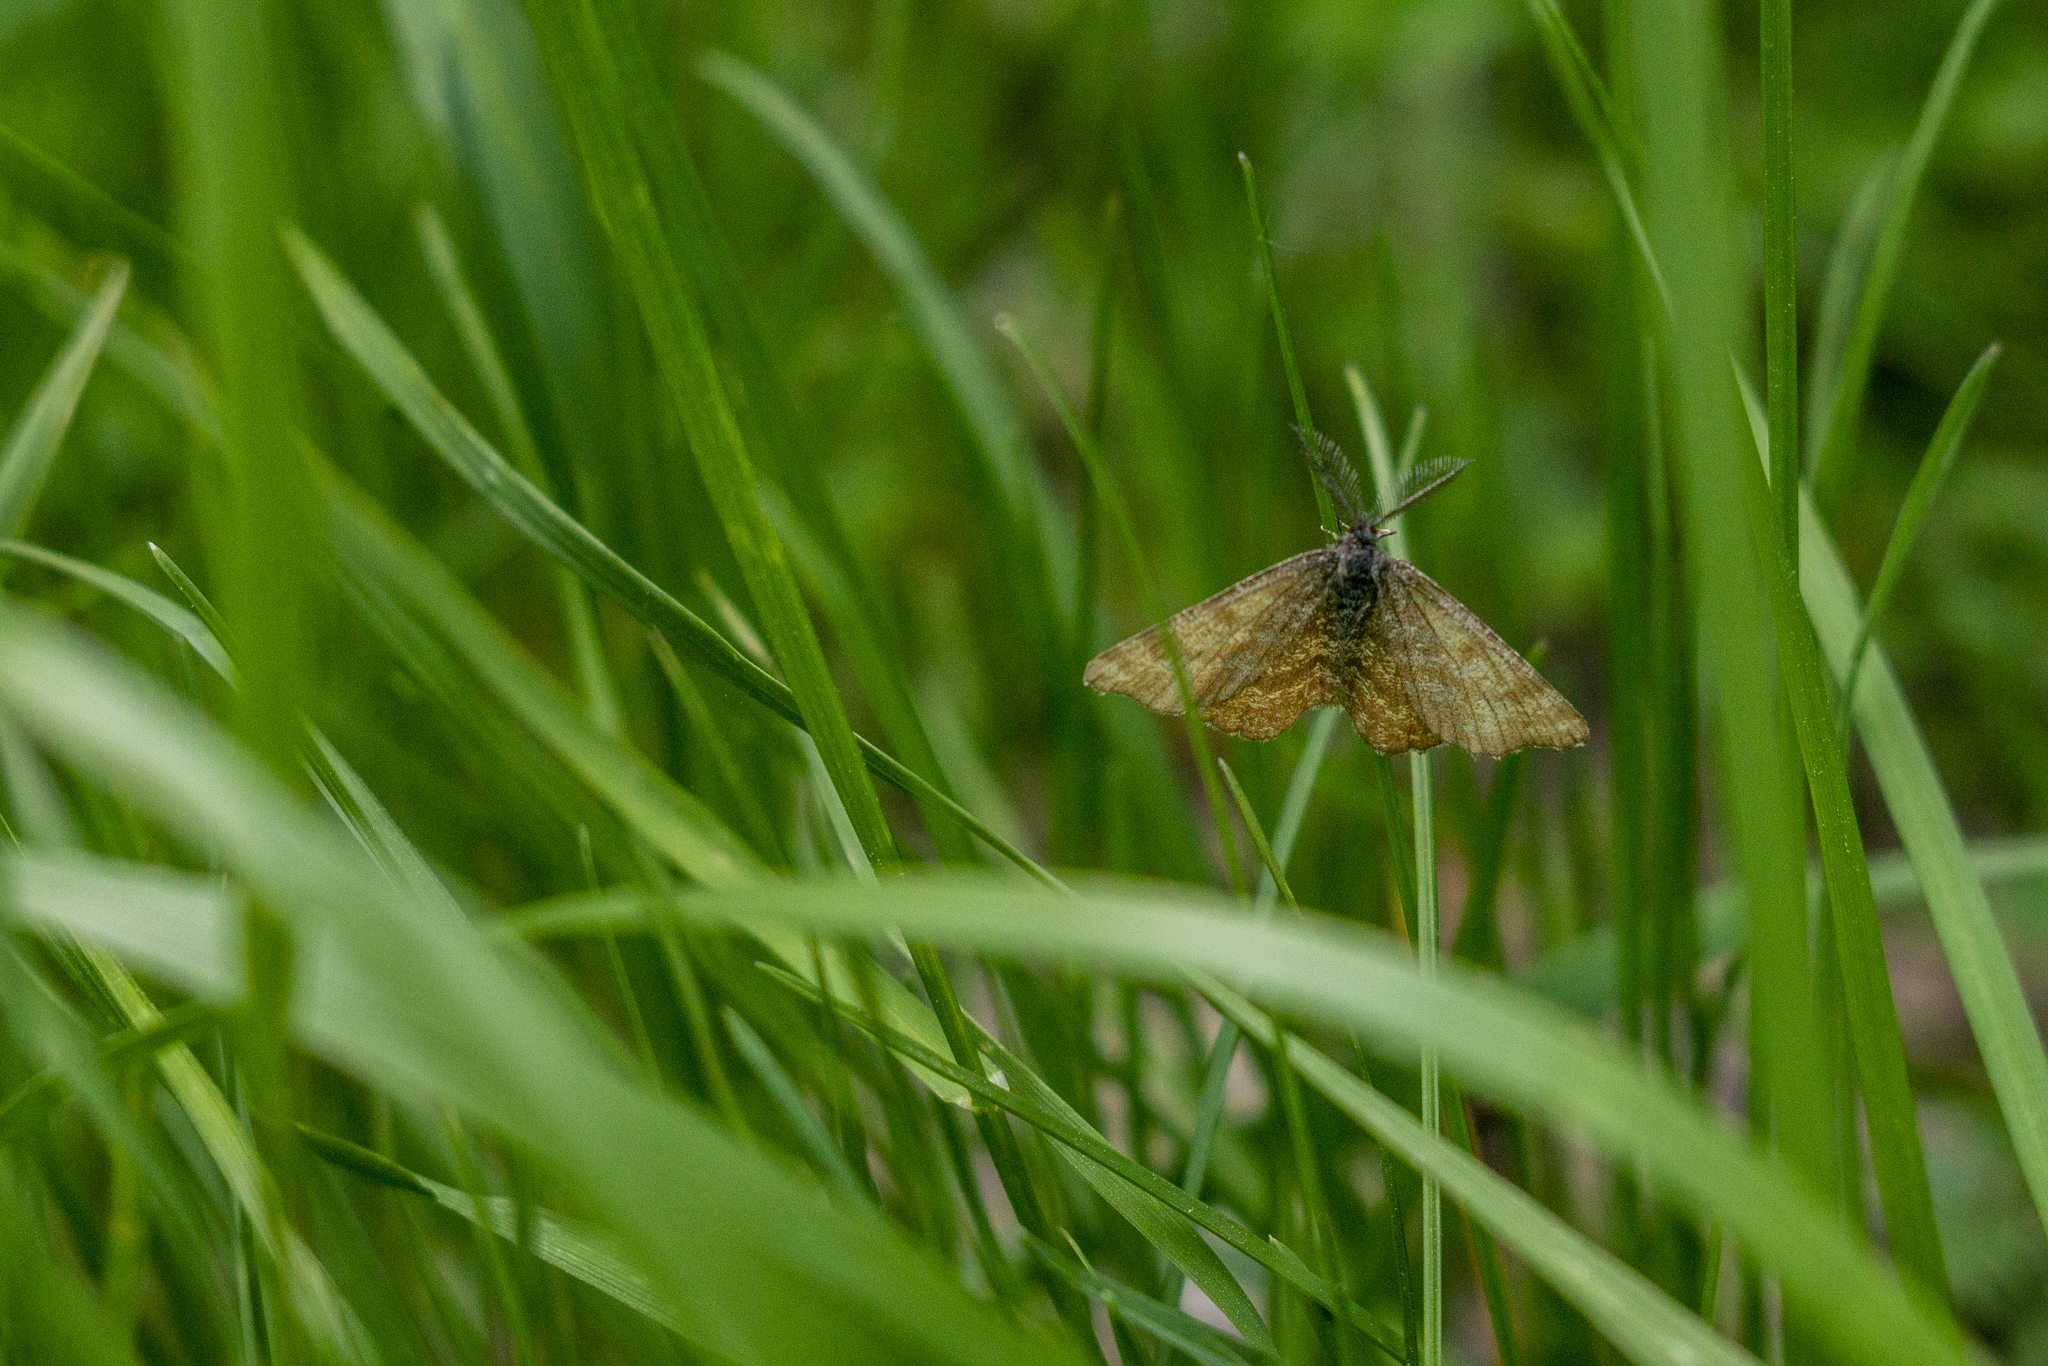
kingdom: Animalia
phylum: Arthropoda
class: Insecta
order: Lepidoptera
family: Geometridae
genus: Ematurga
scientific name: Ematurga atomaria
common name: Common heath
